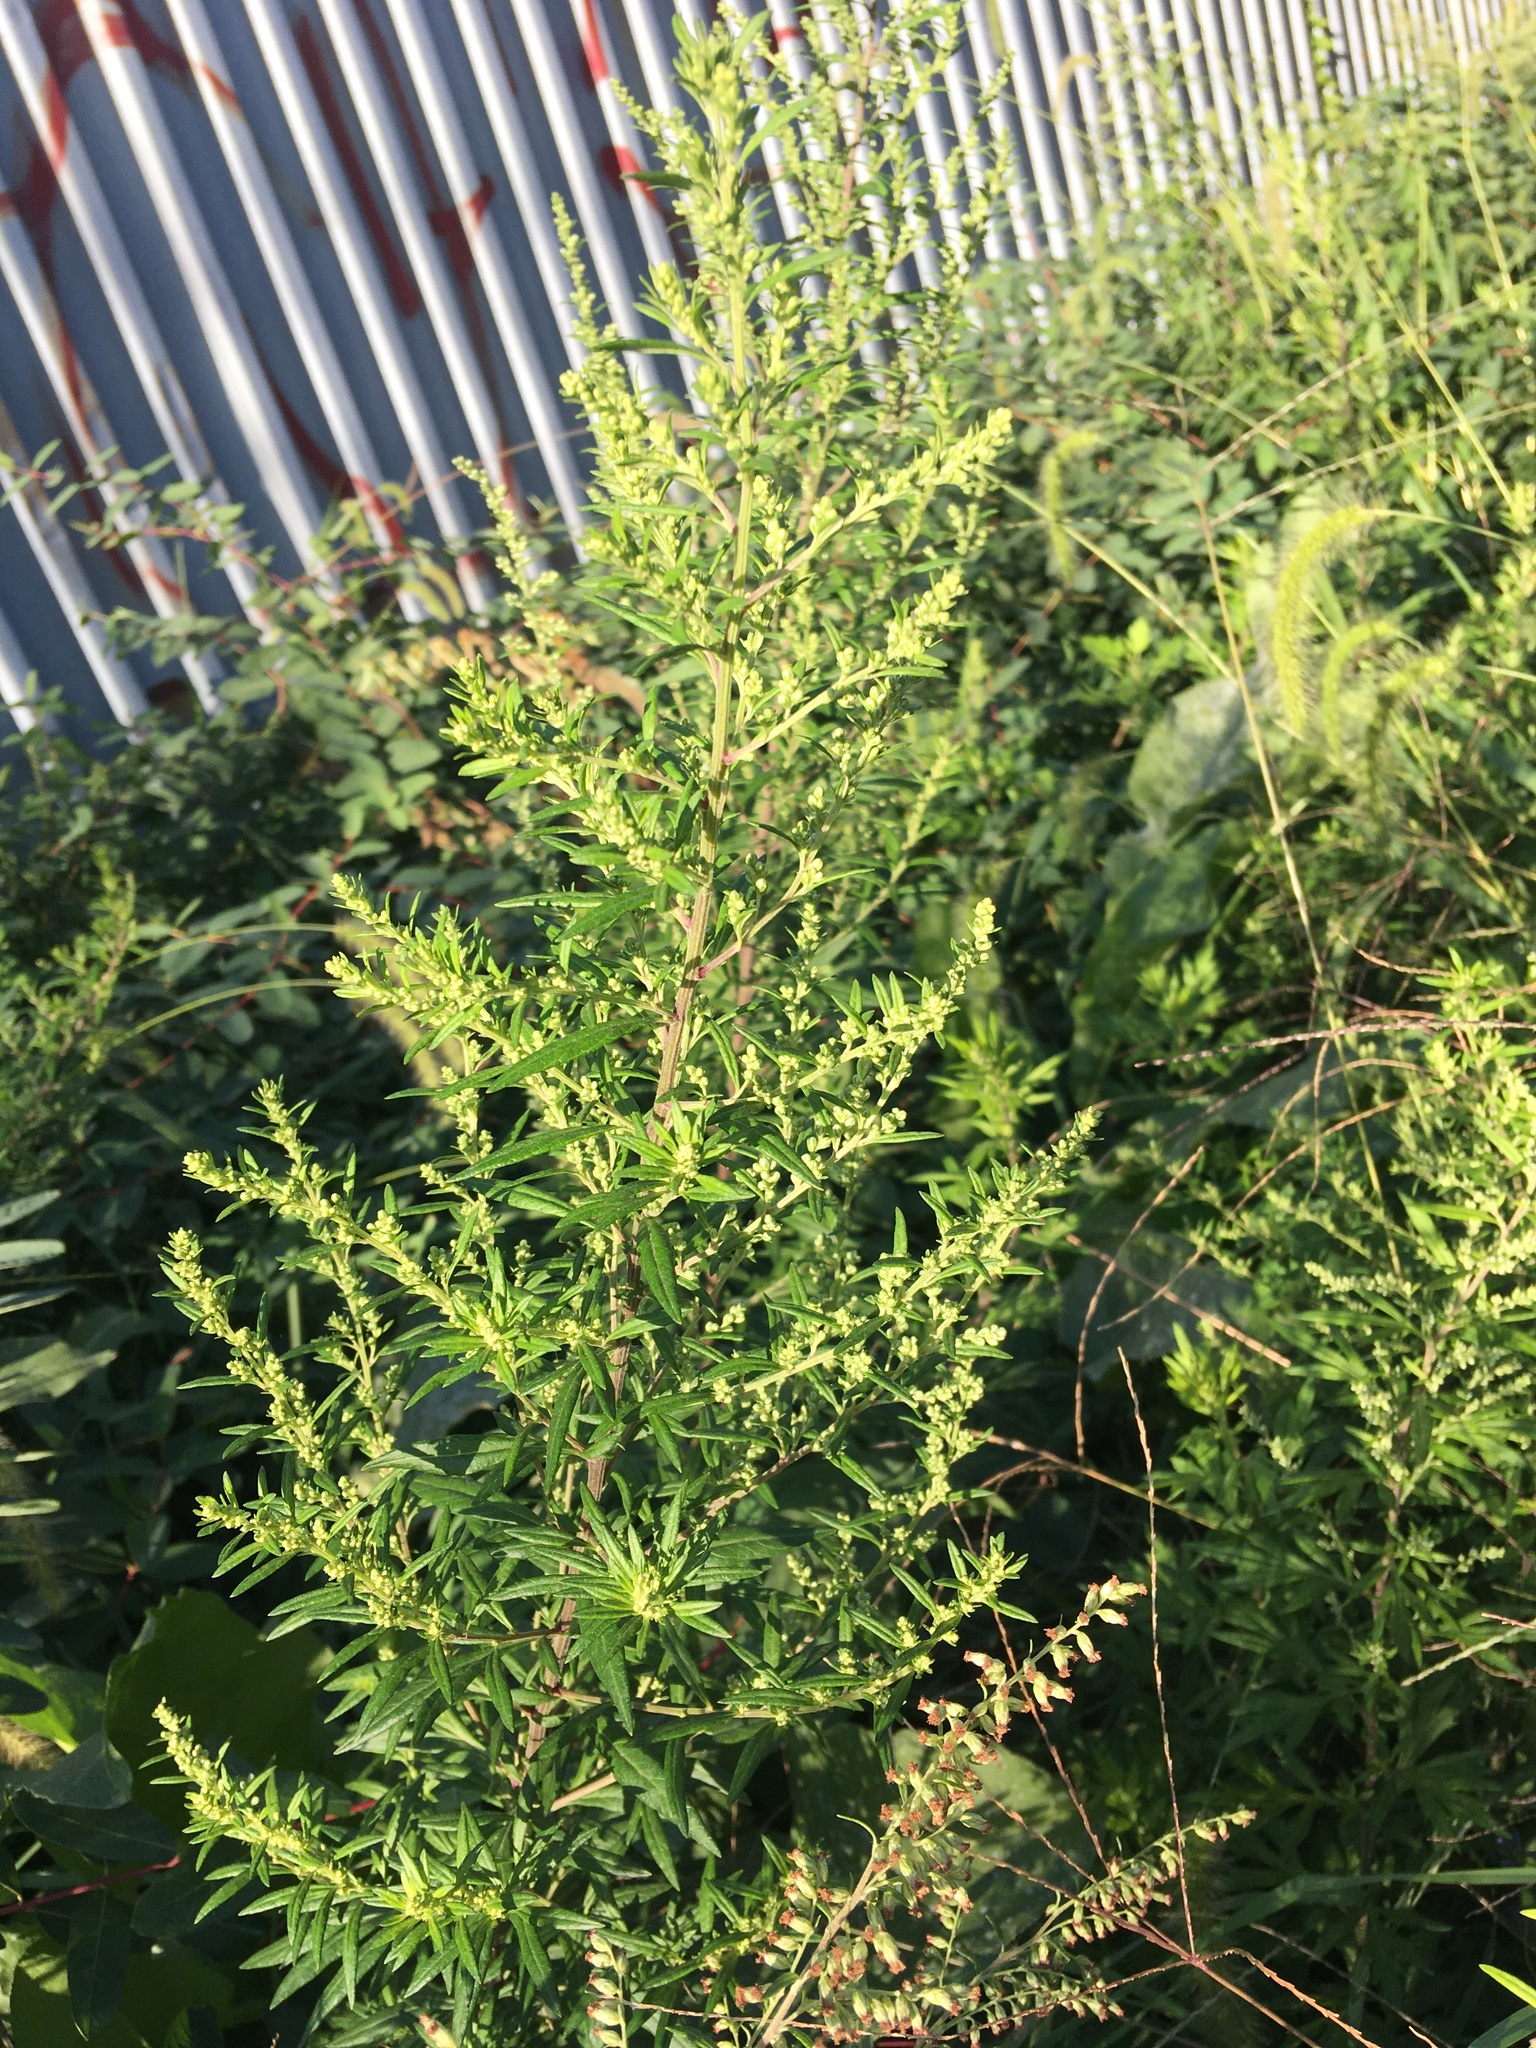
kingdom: Plantae
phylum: Tracheophyta
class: Magnoliopsida
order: Asterales
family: Asteraceae
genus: Artemisia
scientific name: Artemisia vulgaris
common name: Mugwort
